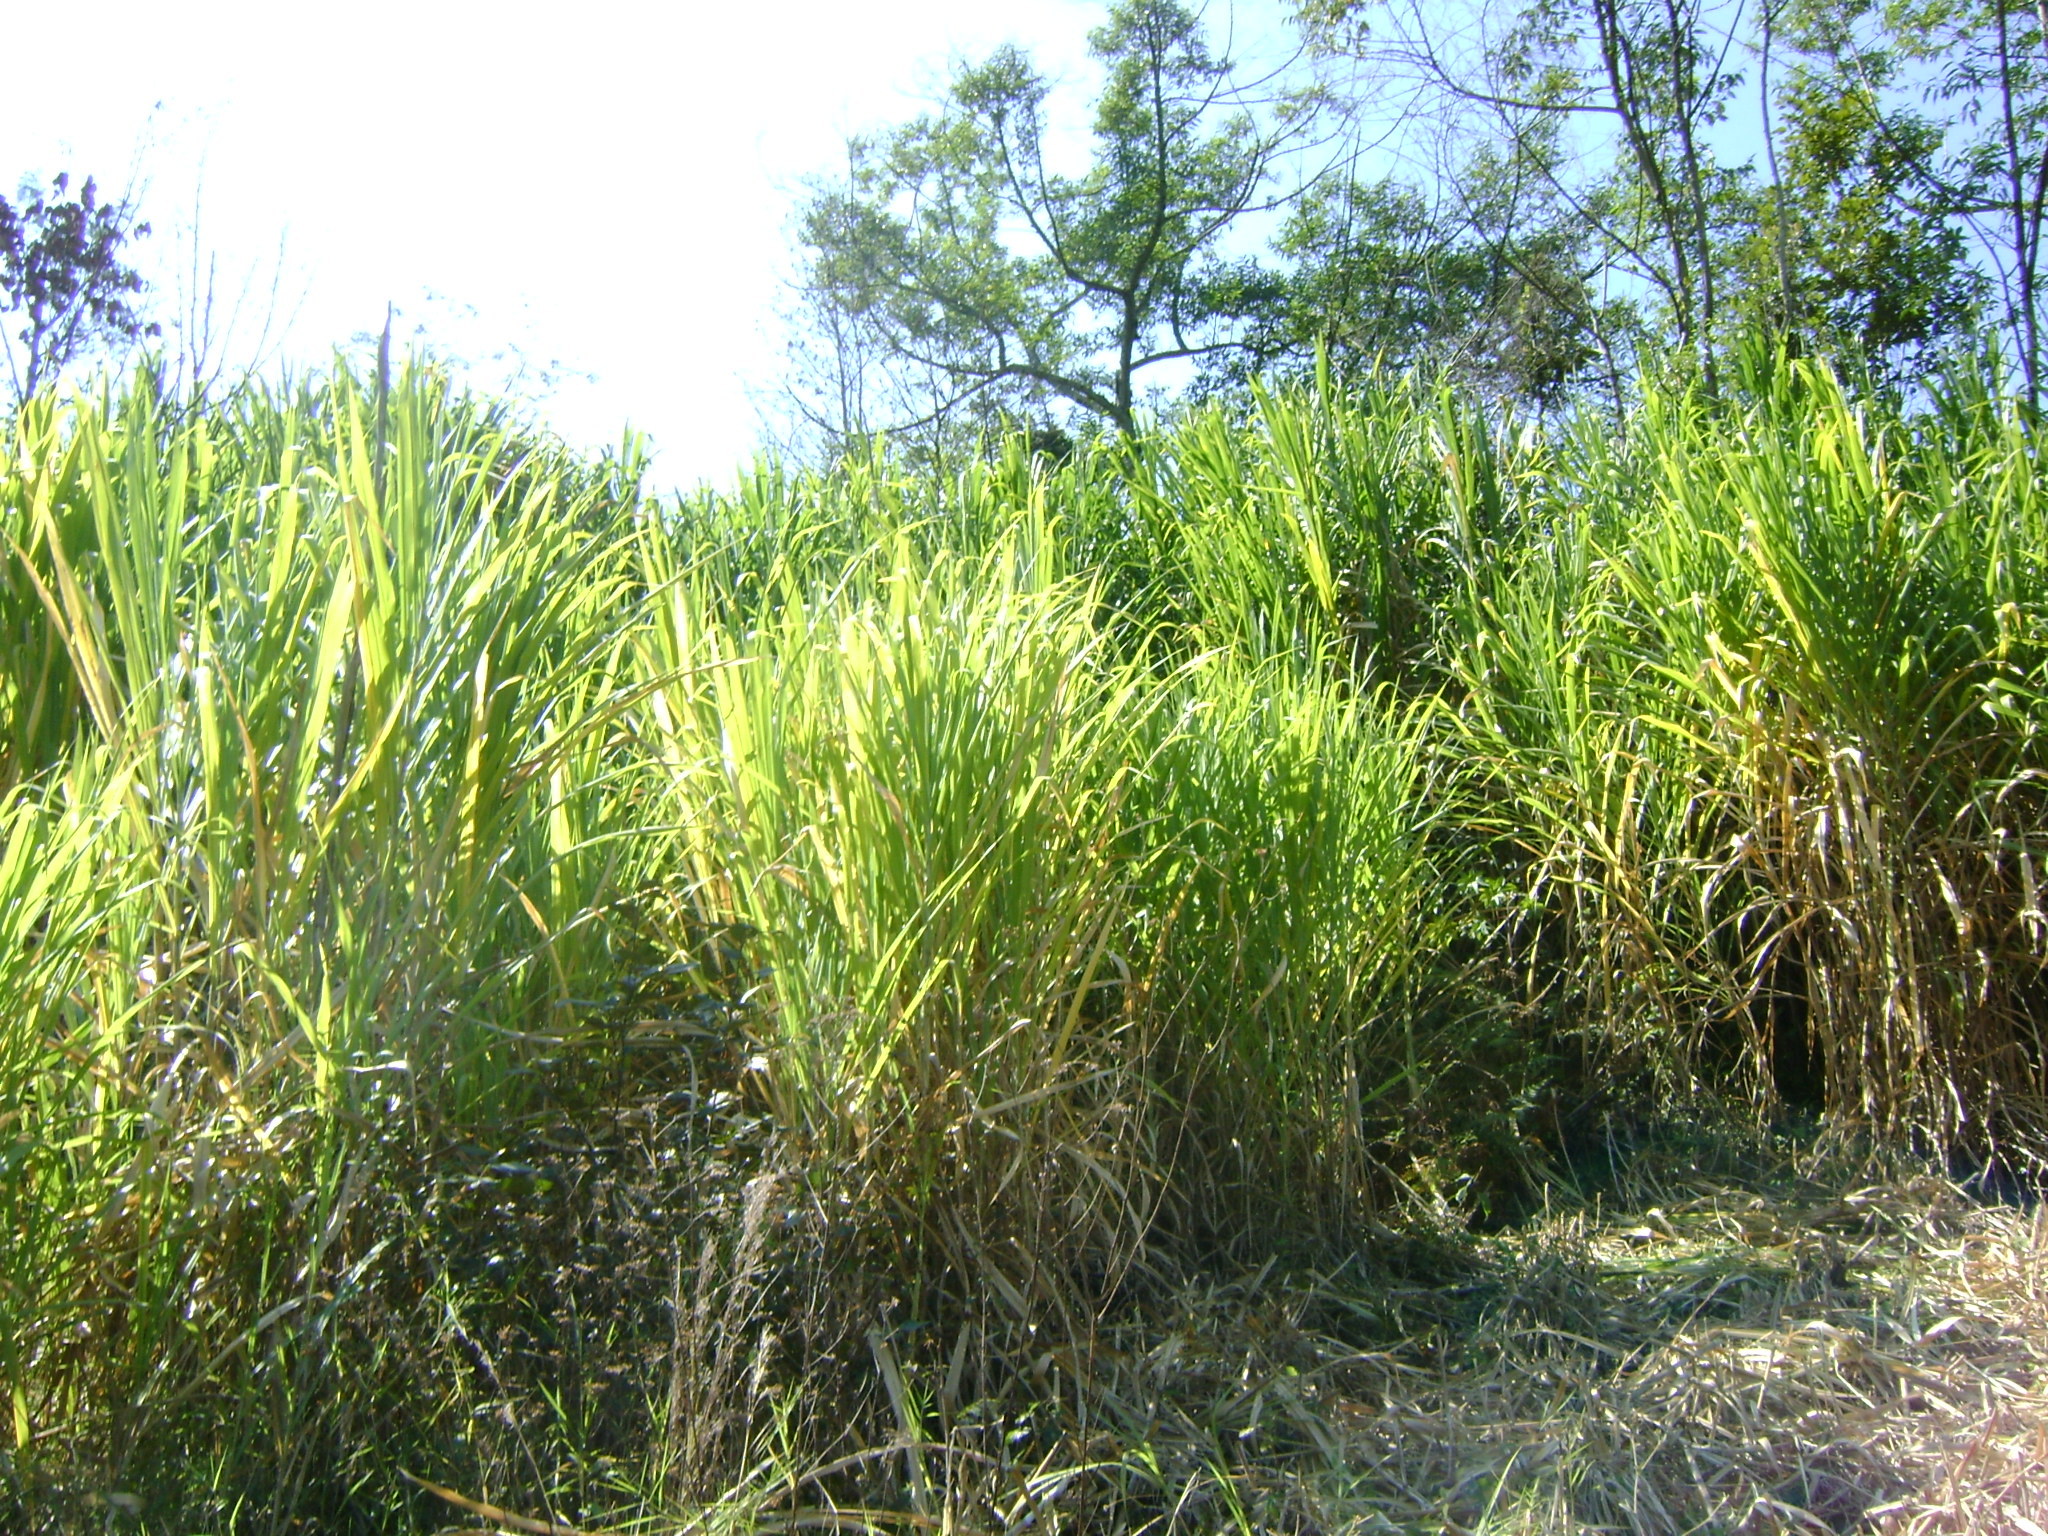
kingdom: Plantae
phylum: Tracheophyta
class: Liliopsida
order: Poales
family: Poaceae
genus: Cenchrus
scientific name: Cenchrus purpureus
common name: Elephant grass
